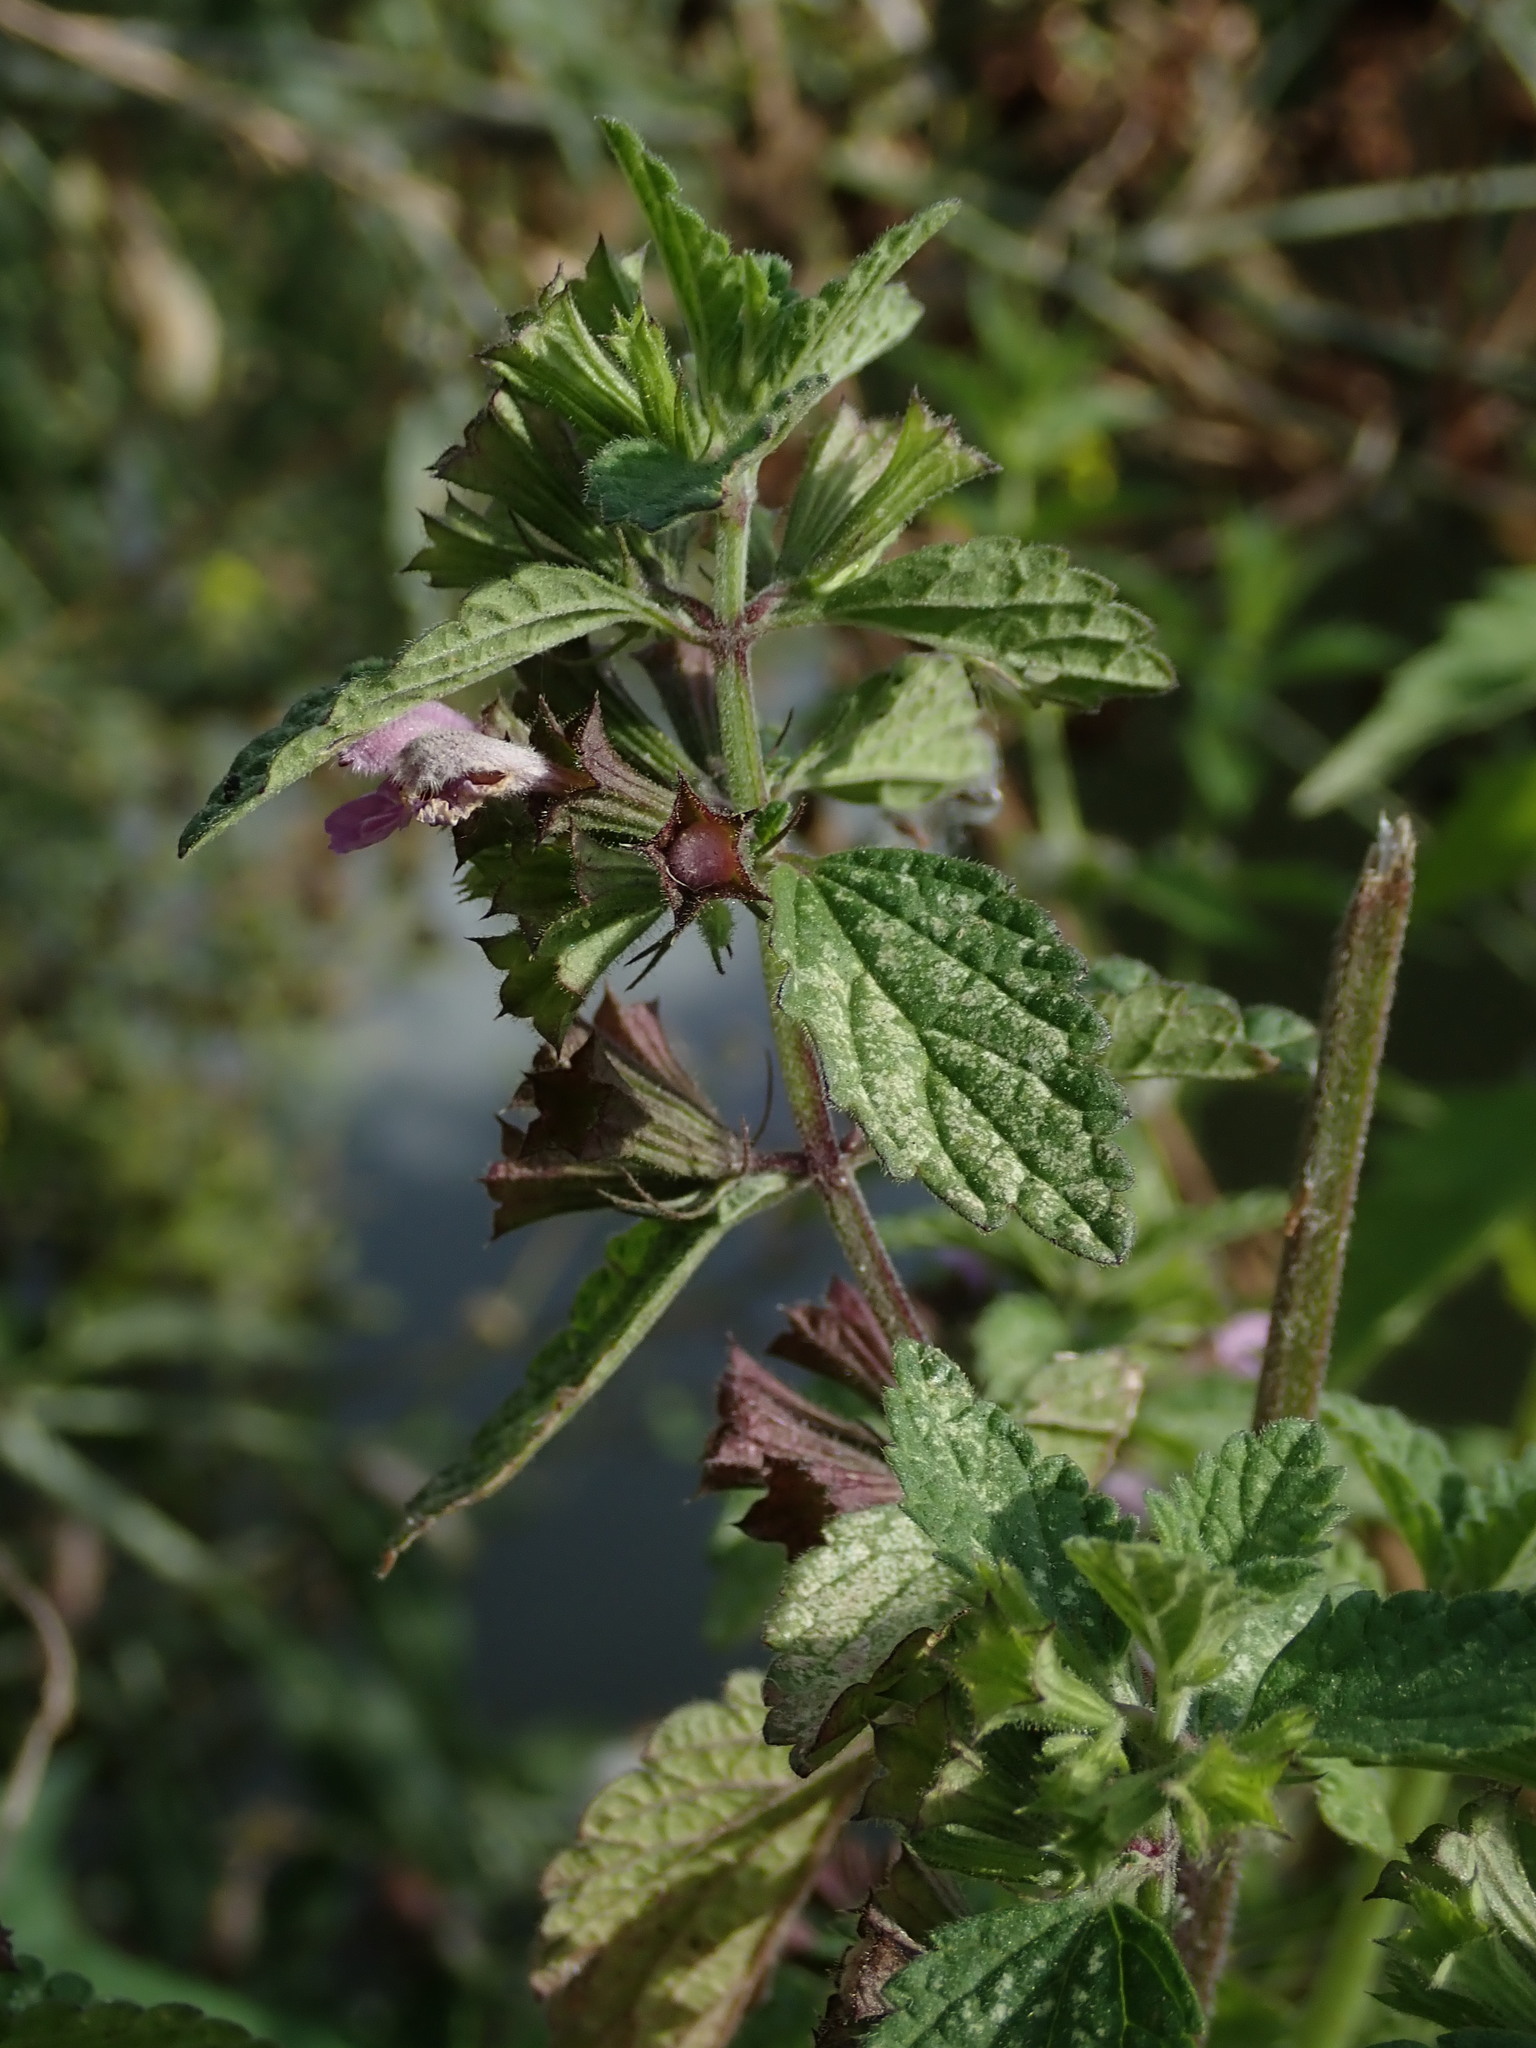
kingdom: Plantae
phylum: Tracheophyta
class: Magnoliopsida
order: Lamiales
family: Lamiaceae
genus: Ballota
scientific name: Ballota nigra
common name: Black horehound
